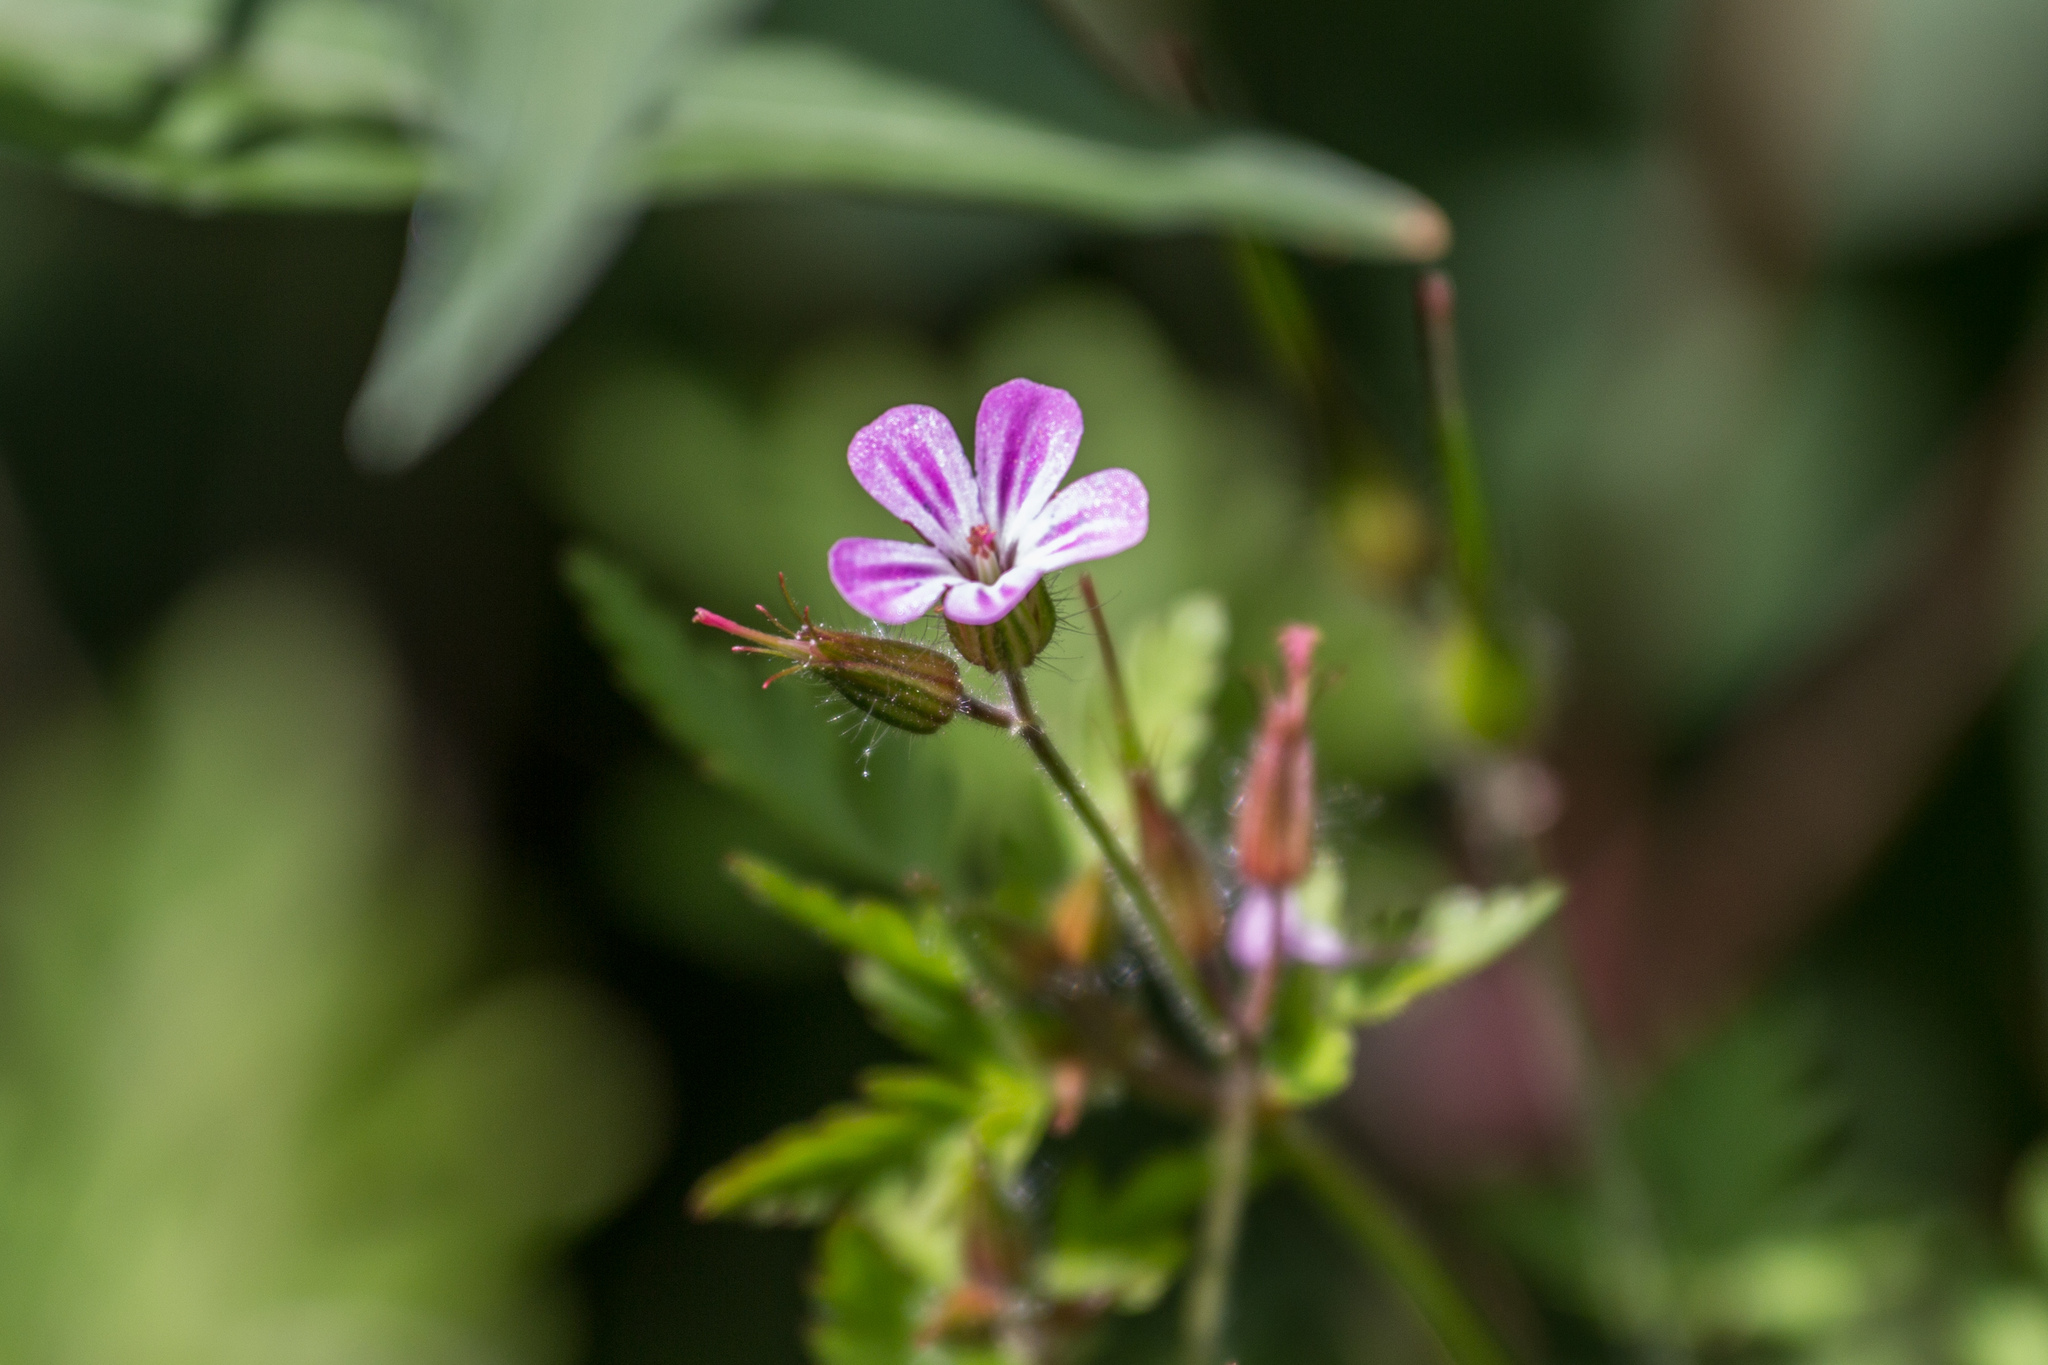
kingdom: Plantae
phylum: Tracheophyta
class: Magnoliopsida
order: Geraniales
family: Geraniaceae
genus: Geranium
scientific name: Geranium robertianum
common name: Herb-robert
